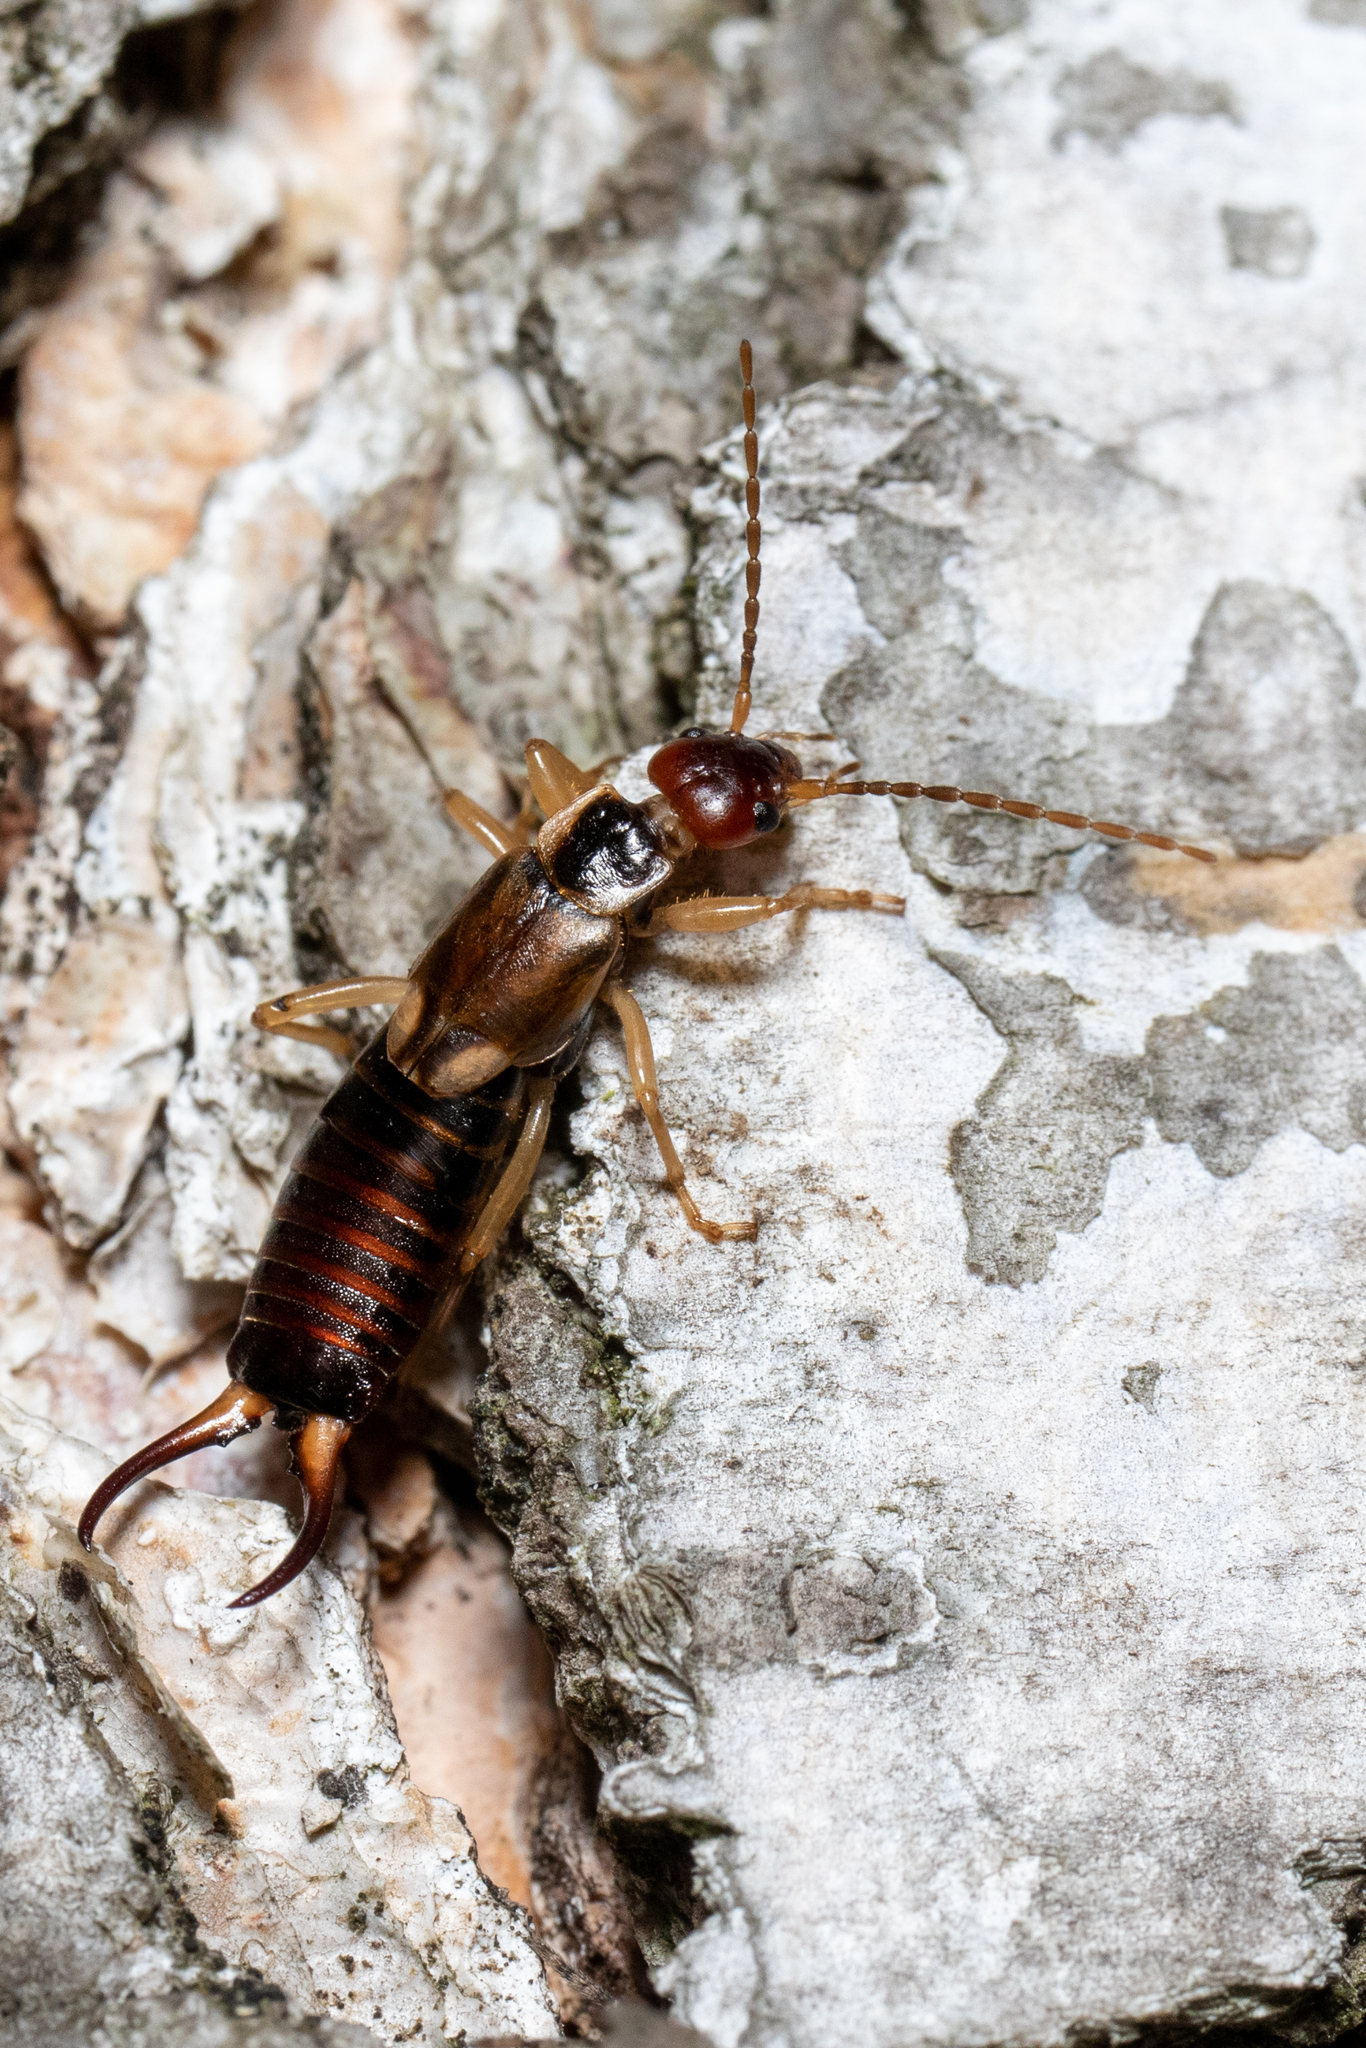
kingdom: Animalia
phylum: Arthropoda
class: Insecta
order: Dermaptera
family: Forficulidae
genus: Forficula
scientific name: Forficula
